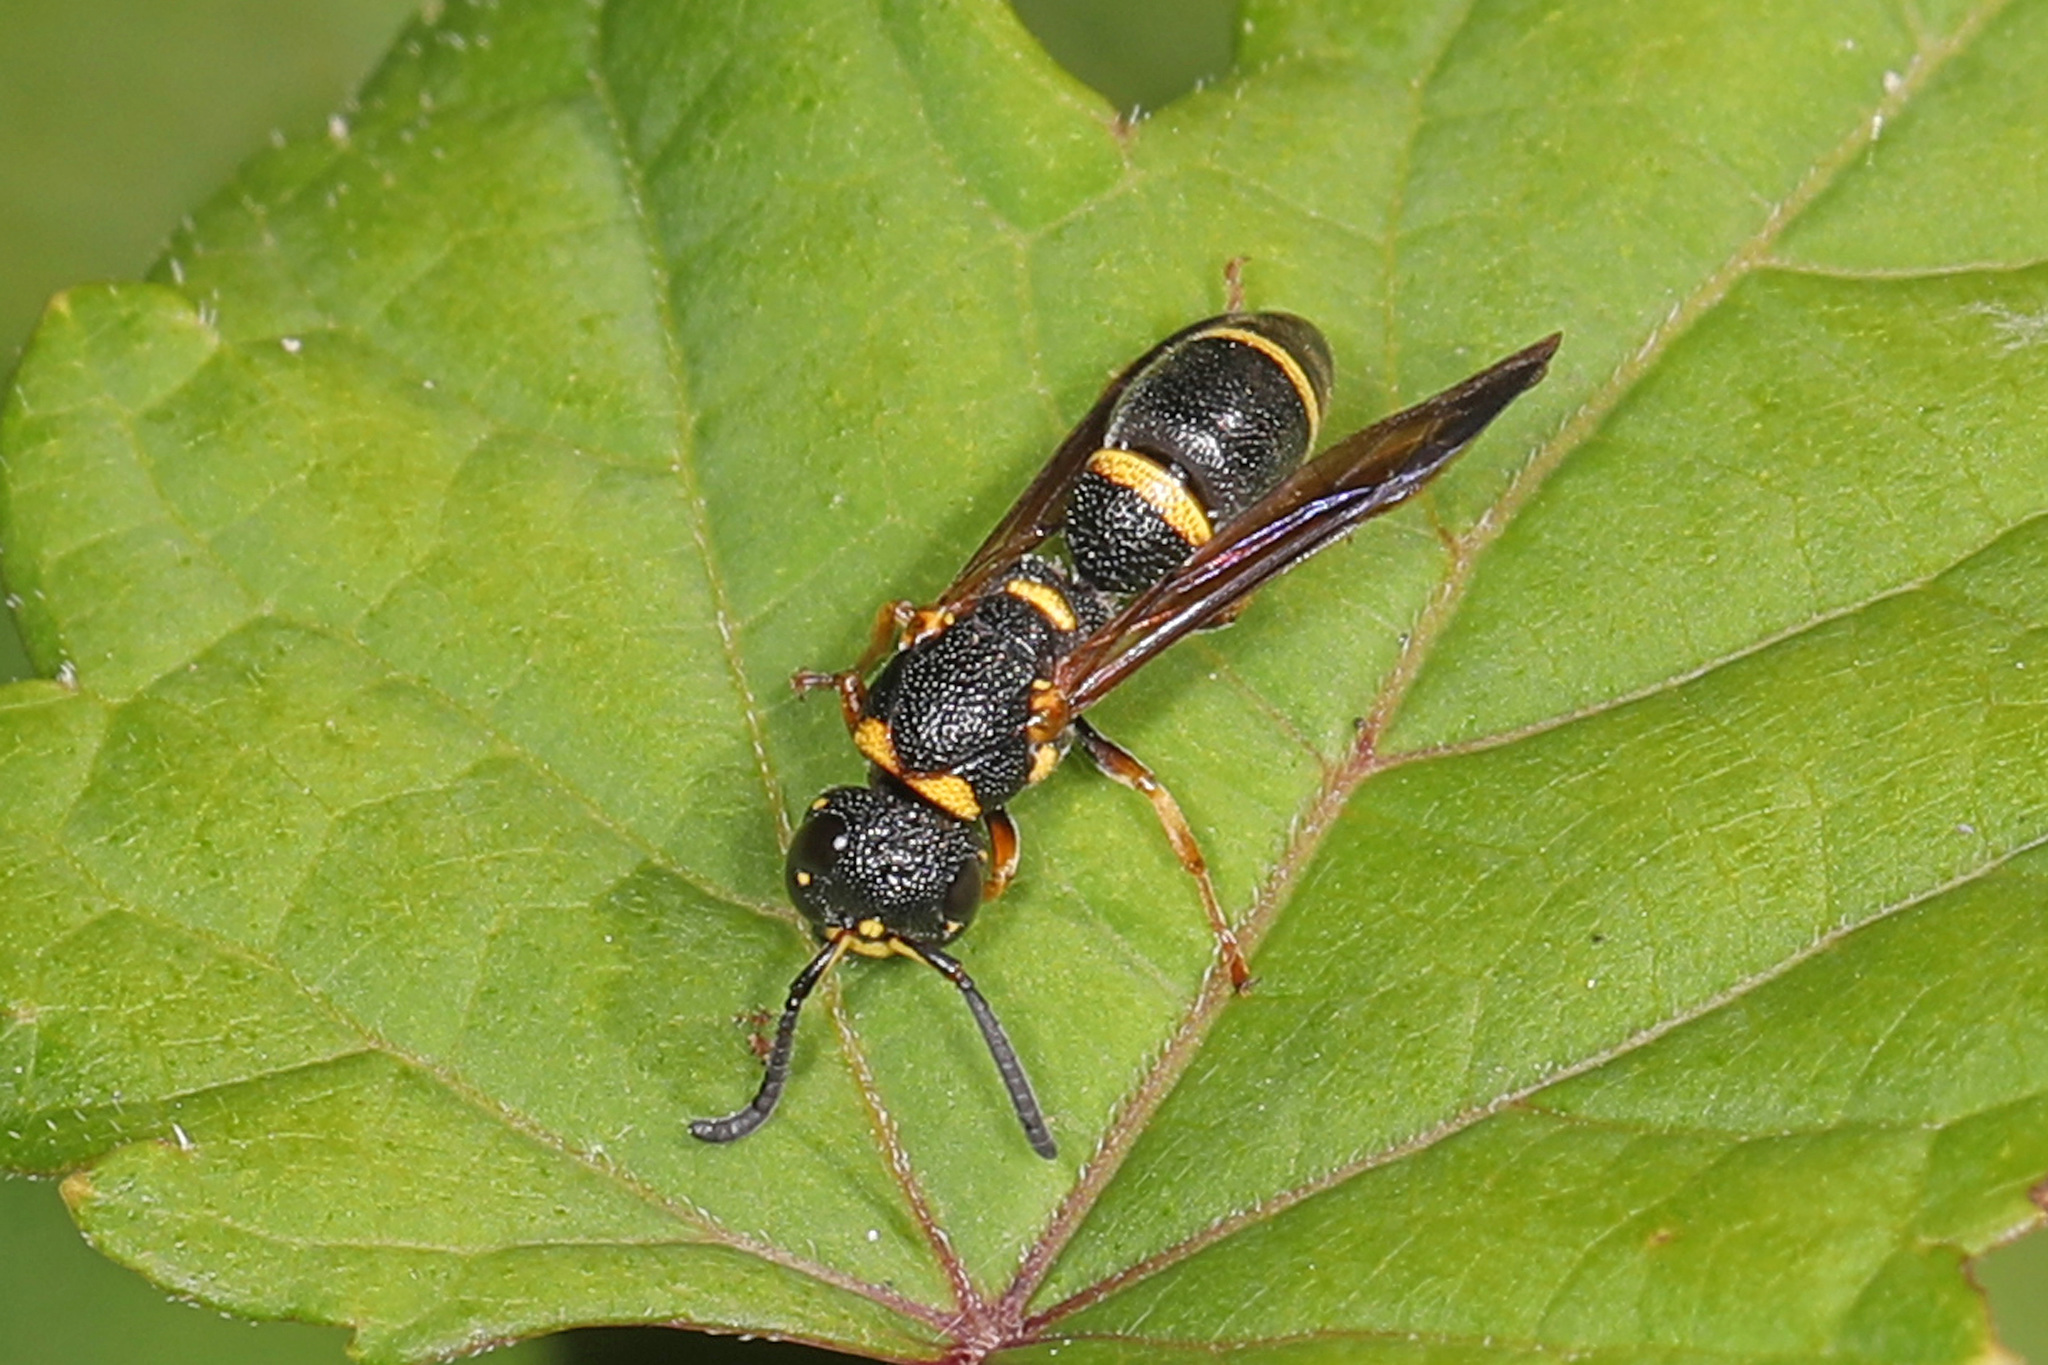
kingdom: Animalia
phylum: Arthropoda
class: Insecta
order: Hymenoptera
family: Eumenidae
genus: Parancistrocerus
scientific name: Parancistrocerus perennis
